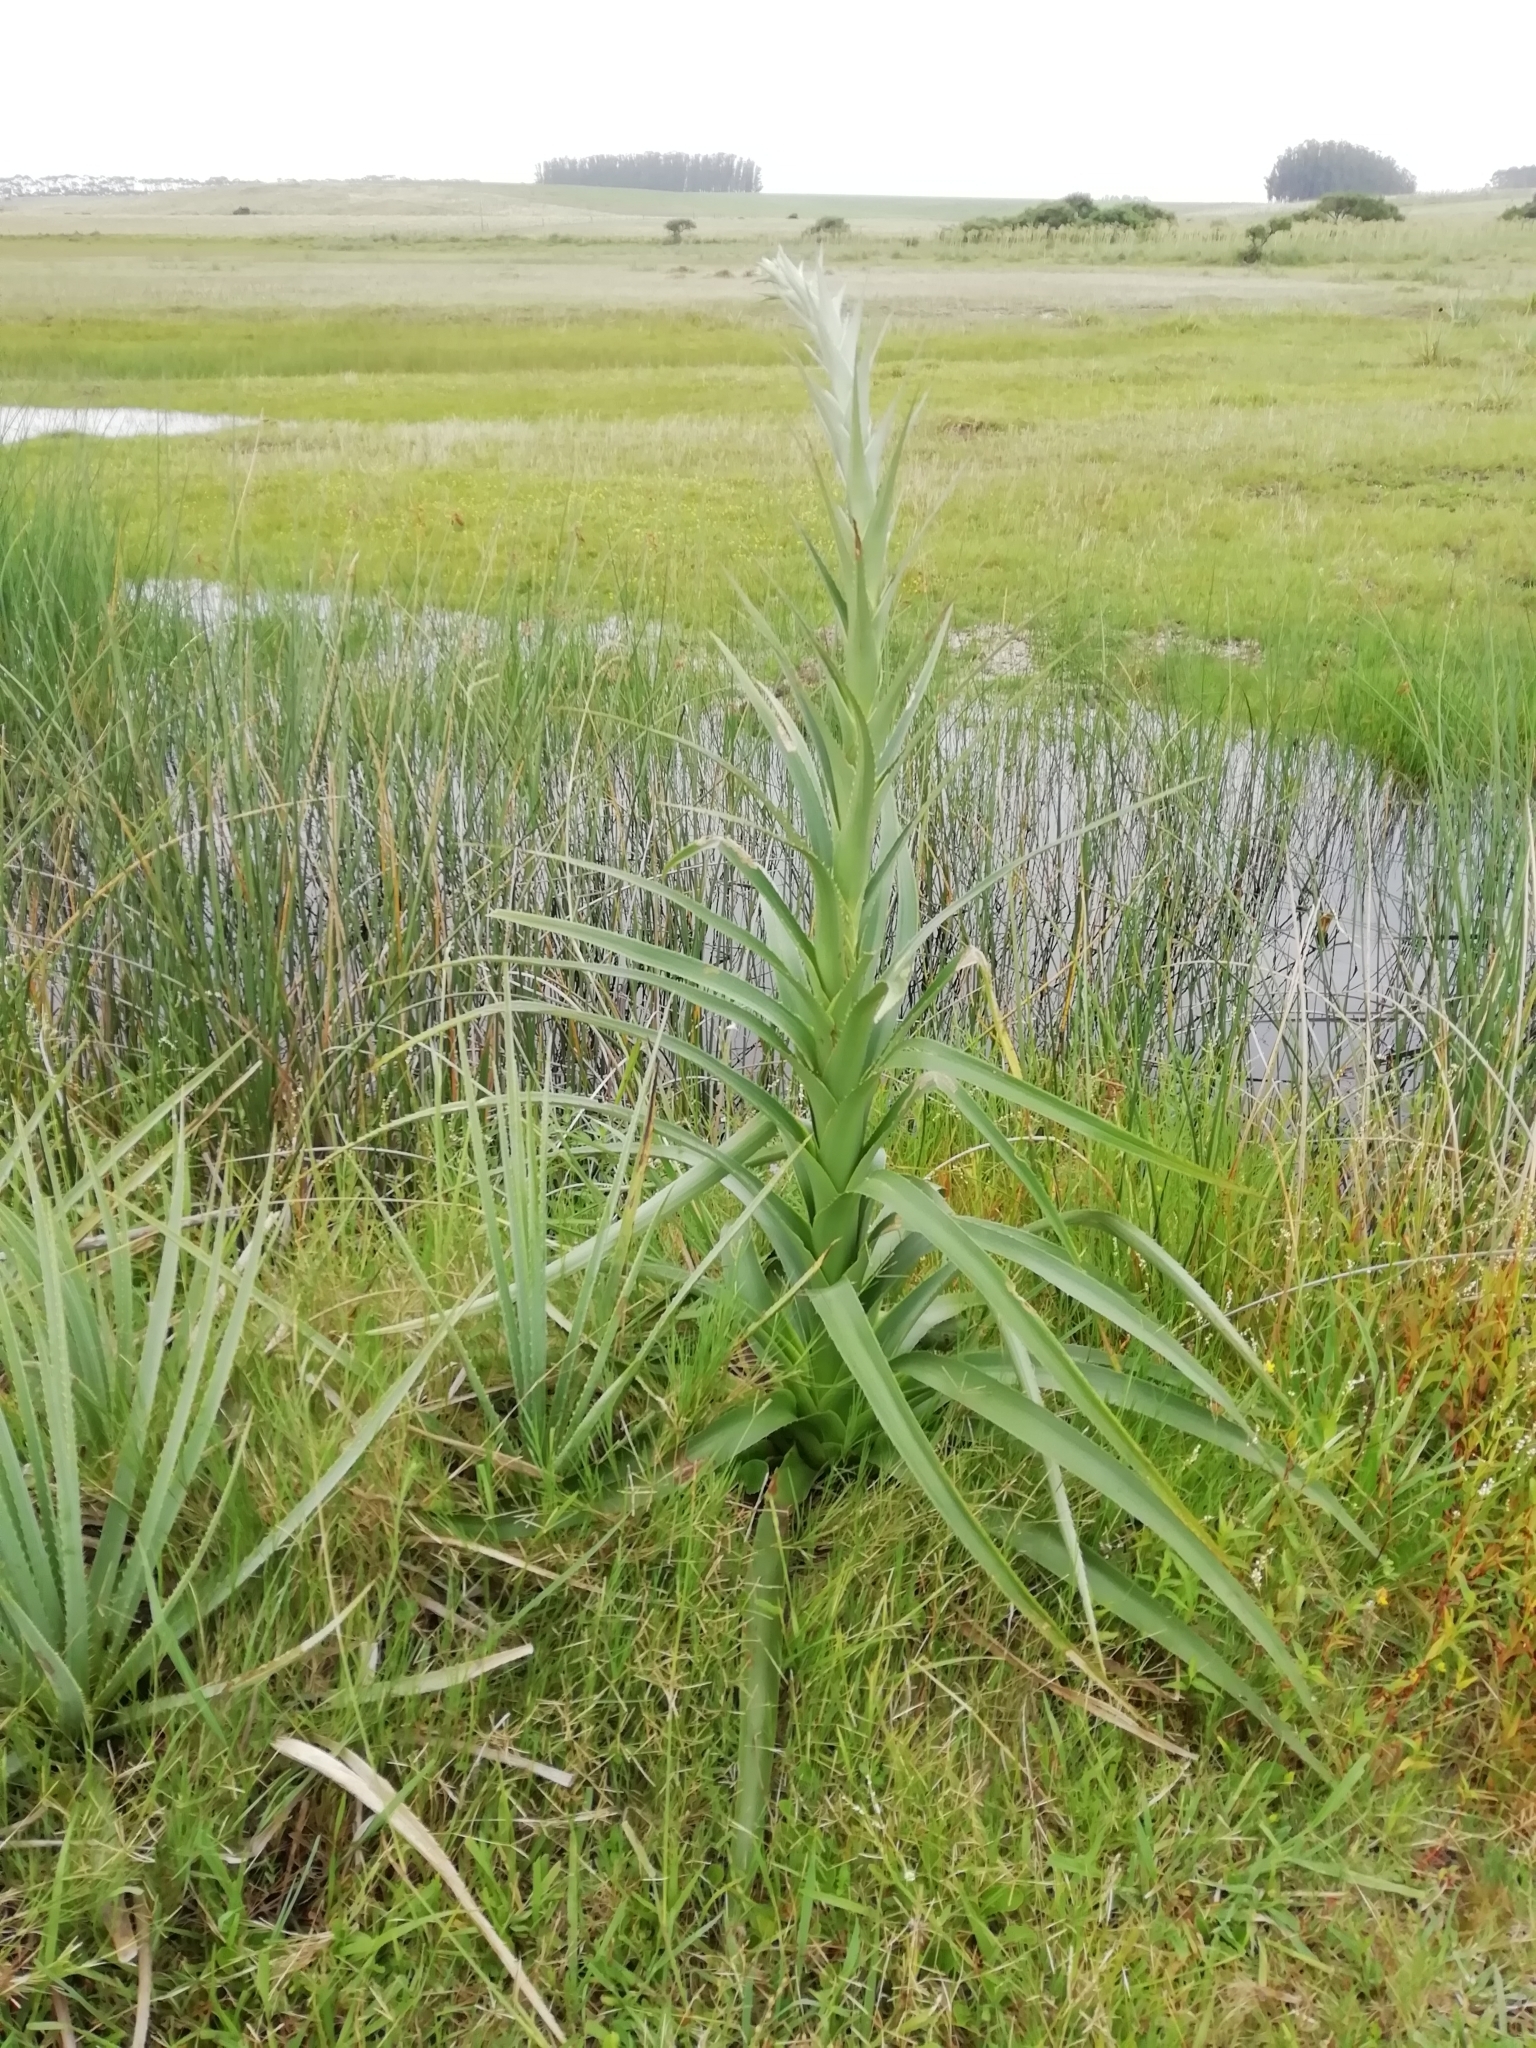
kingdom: Plantae
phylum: Tracheophyta
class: Magnoliopsida
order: Apiales
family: Apiaceae
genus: Eryngium
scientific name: Eryngium eburneum
